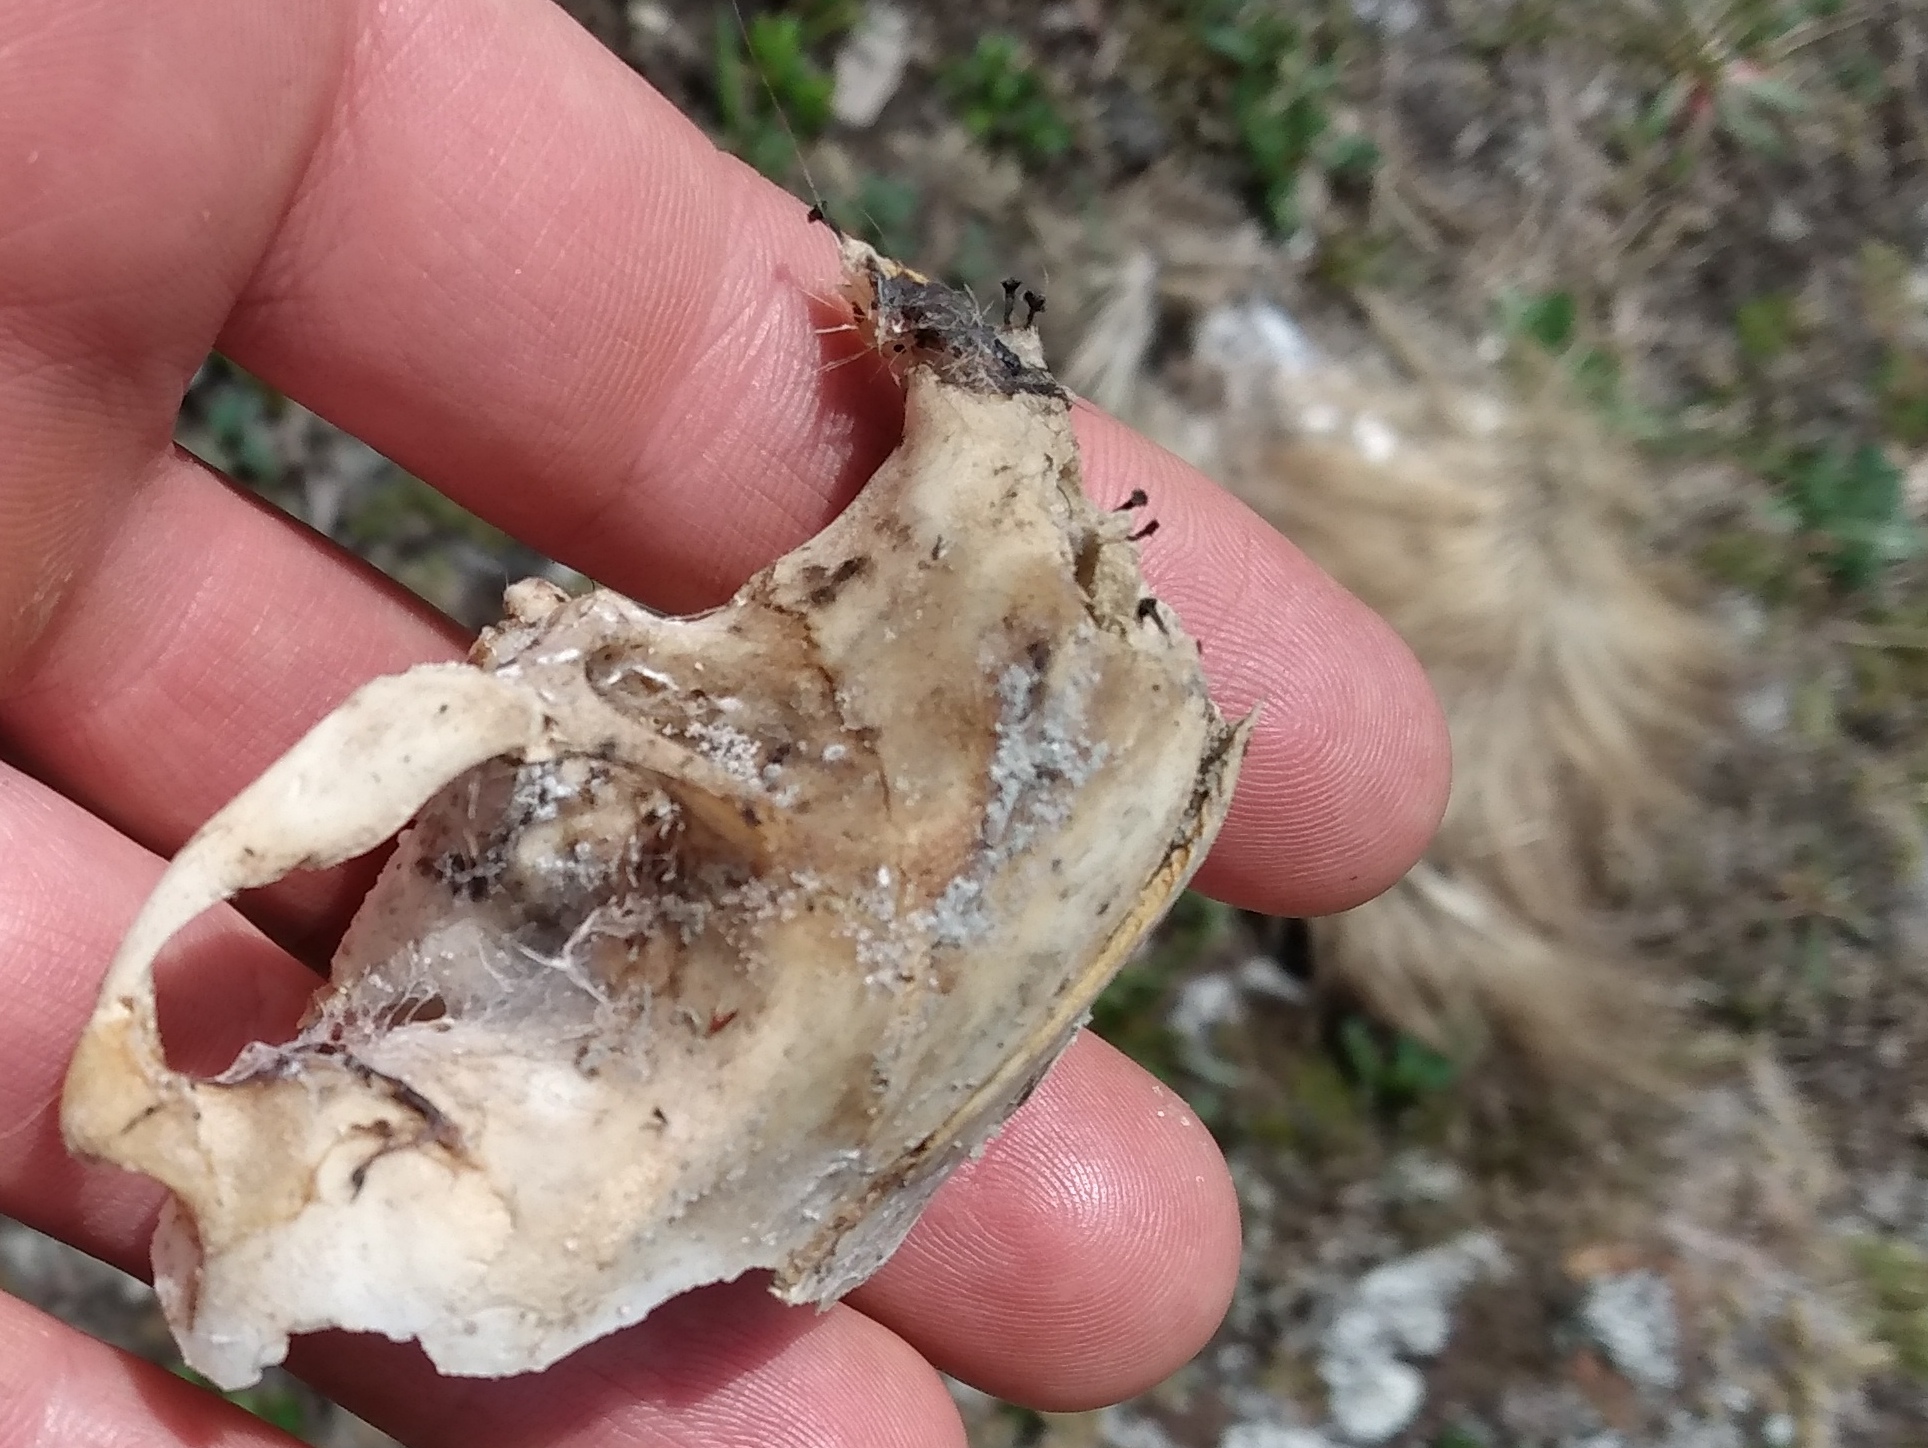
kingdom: Animalia
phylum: Chordata
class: Mammalia
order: Rodentia
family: Erethizontidae
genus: Erethizon
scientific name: Erethizon dorsatus
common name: North american porcupine
